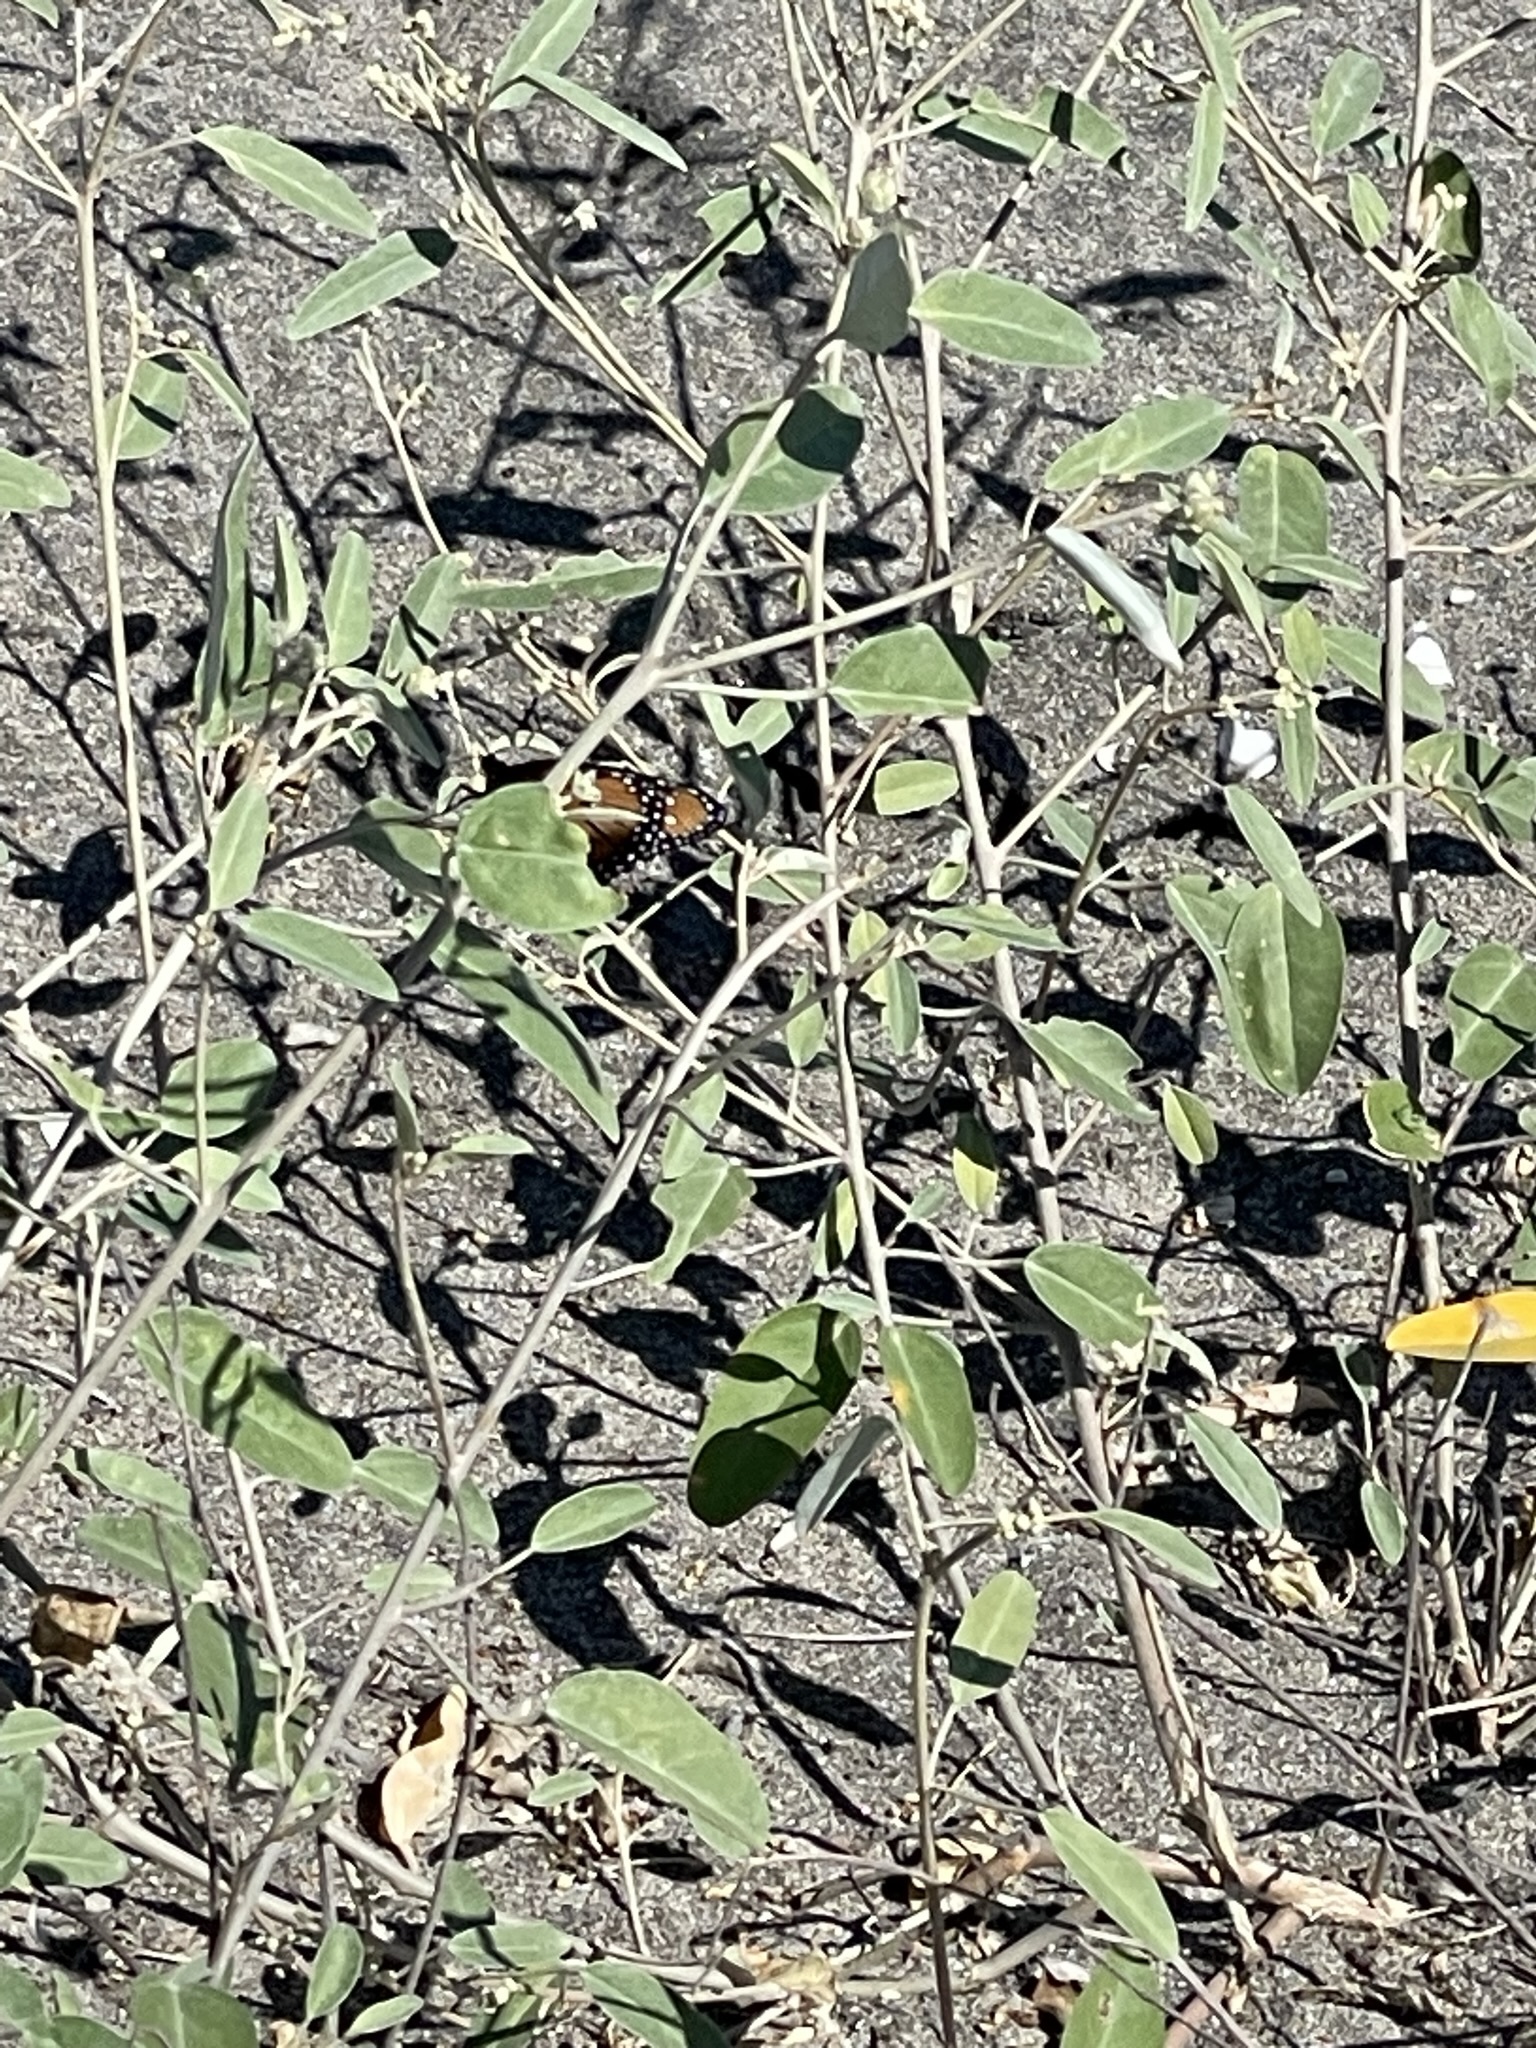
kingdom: Animalia
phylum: Arthropoda
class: Insecta
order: Lepidoptera
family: Nymphalidae
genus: Danaus
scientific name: Danaus gilippus
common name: Queen
